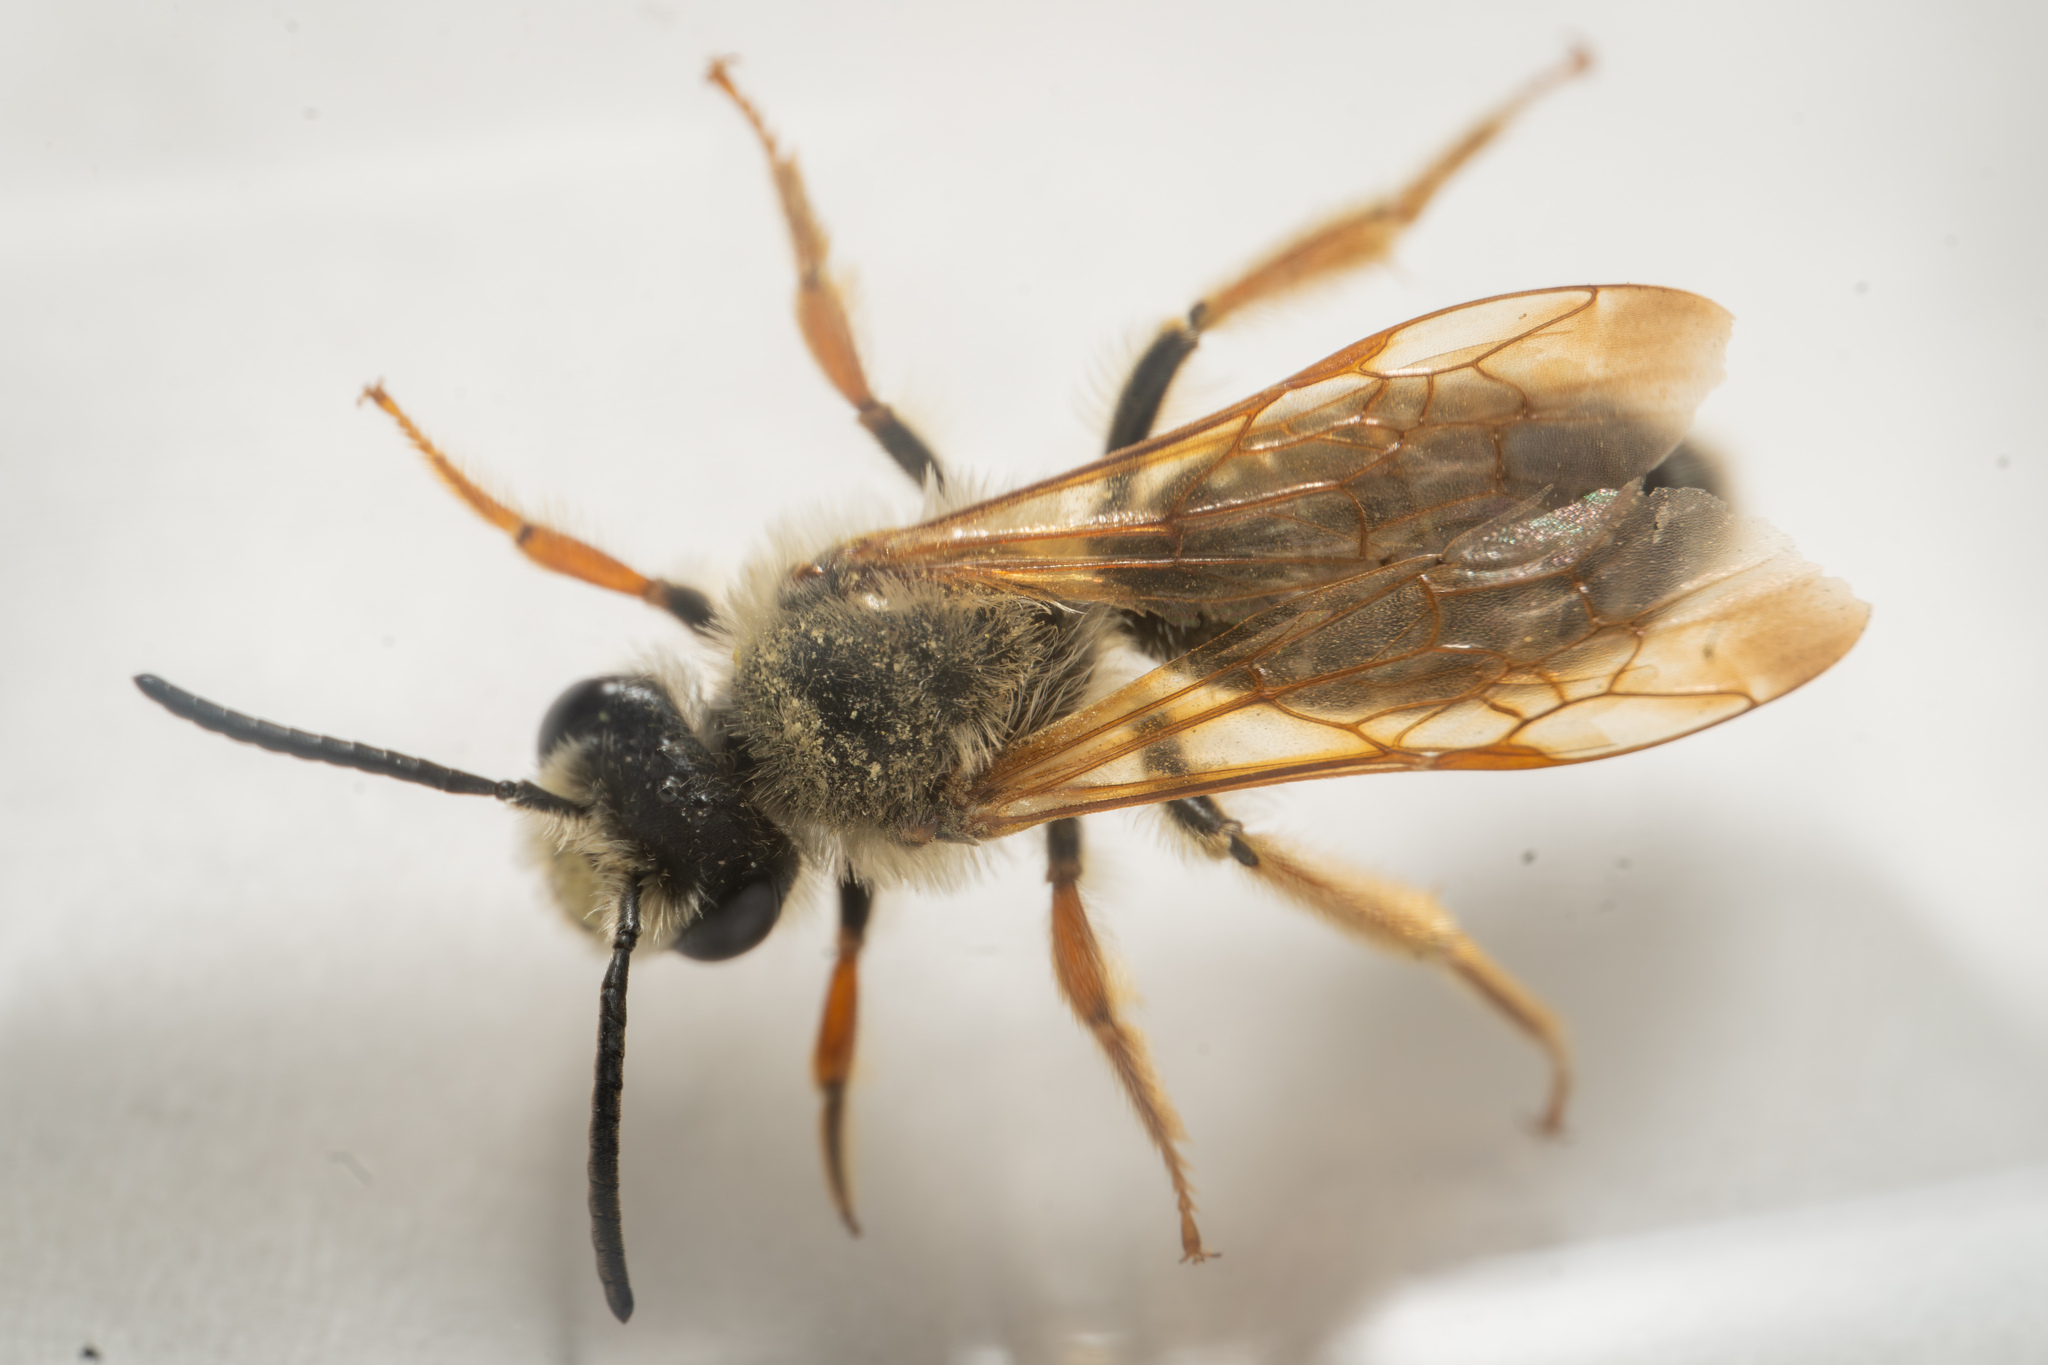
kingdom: Animalia
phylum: Arthropoda
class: Insecta
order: Hymenoptera
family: Andrenidae
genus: Andrena
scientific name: Andrena prunorum
